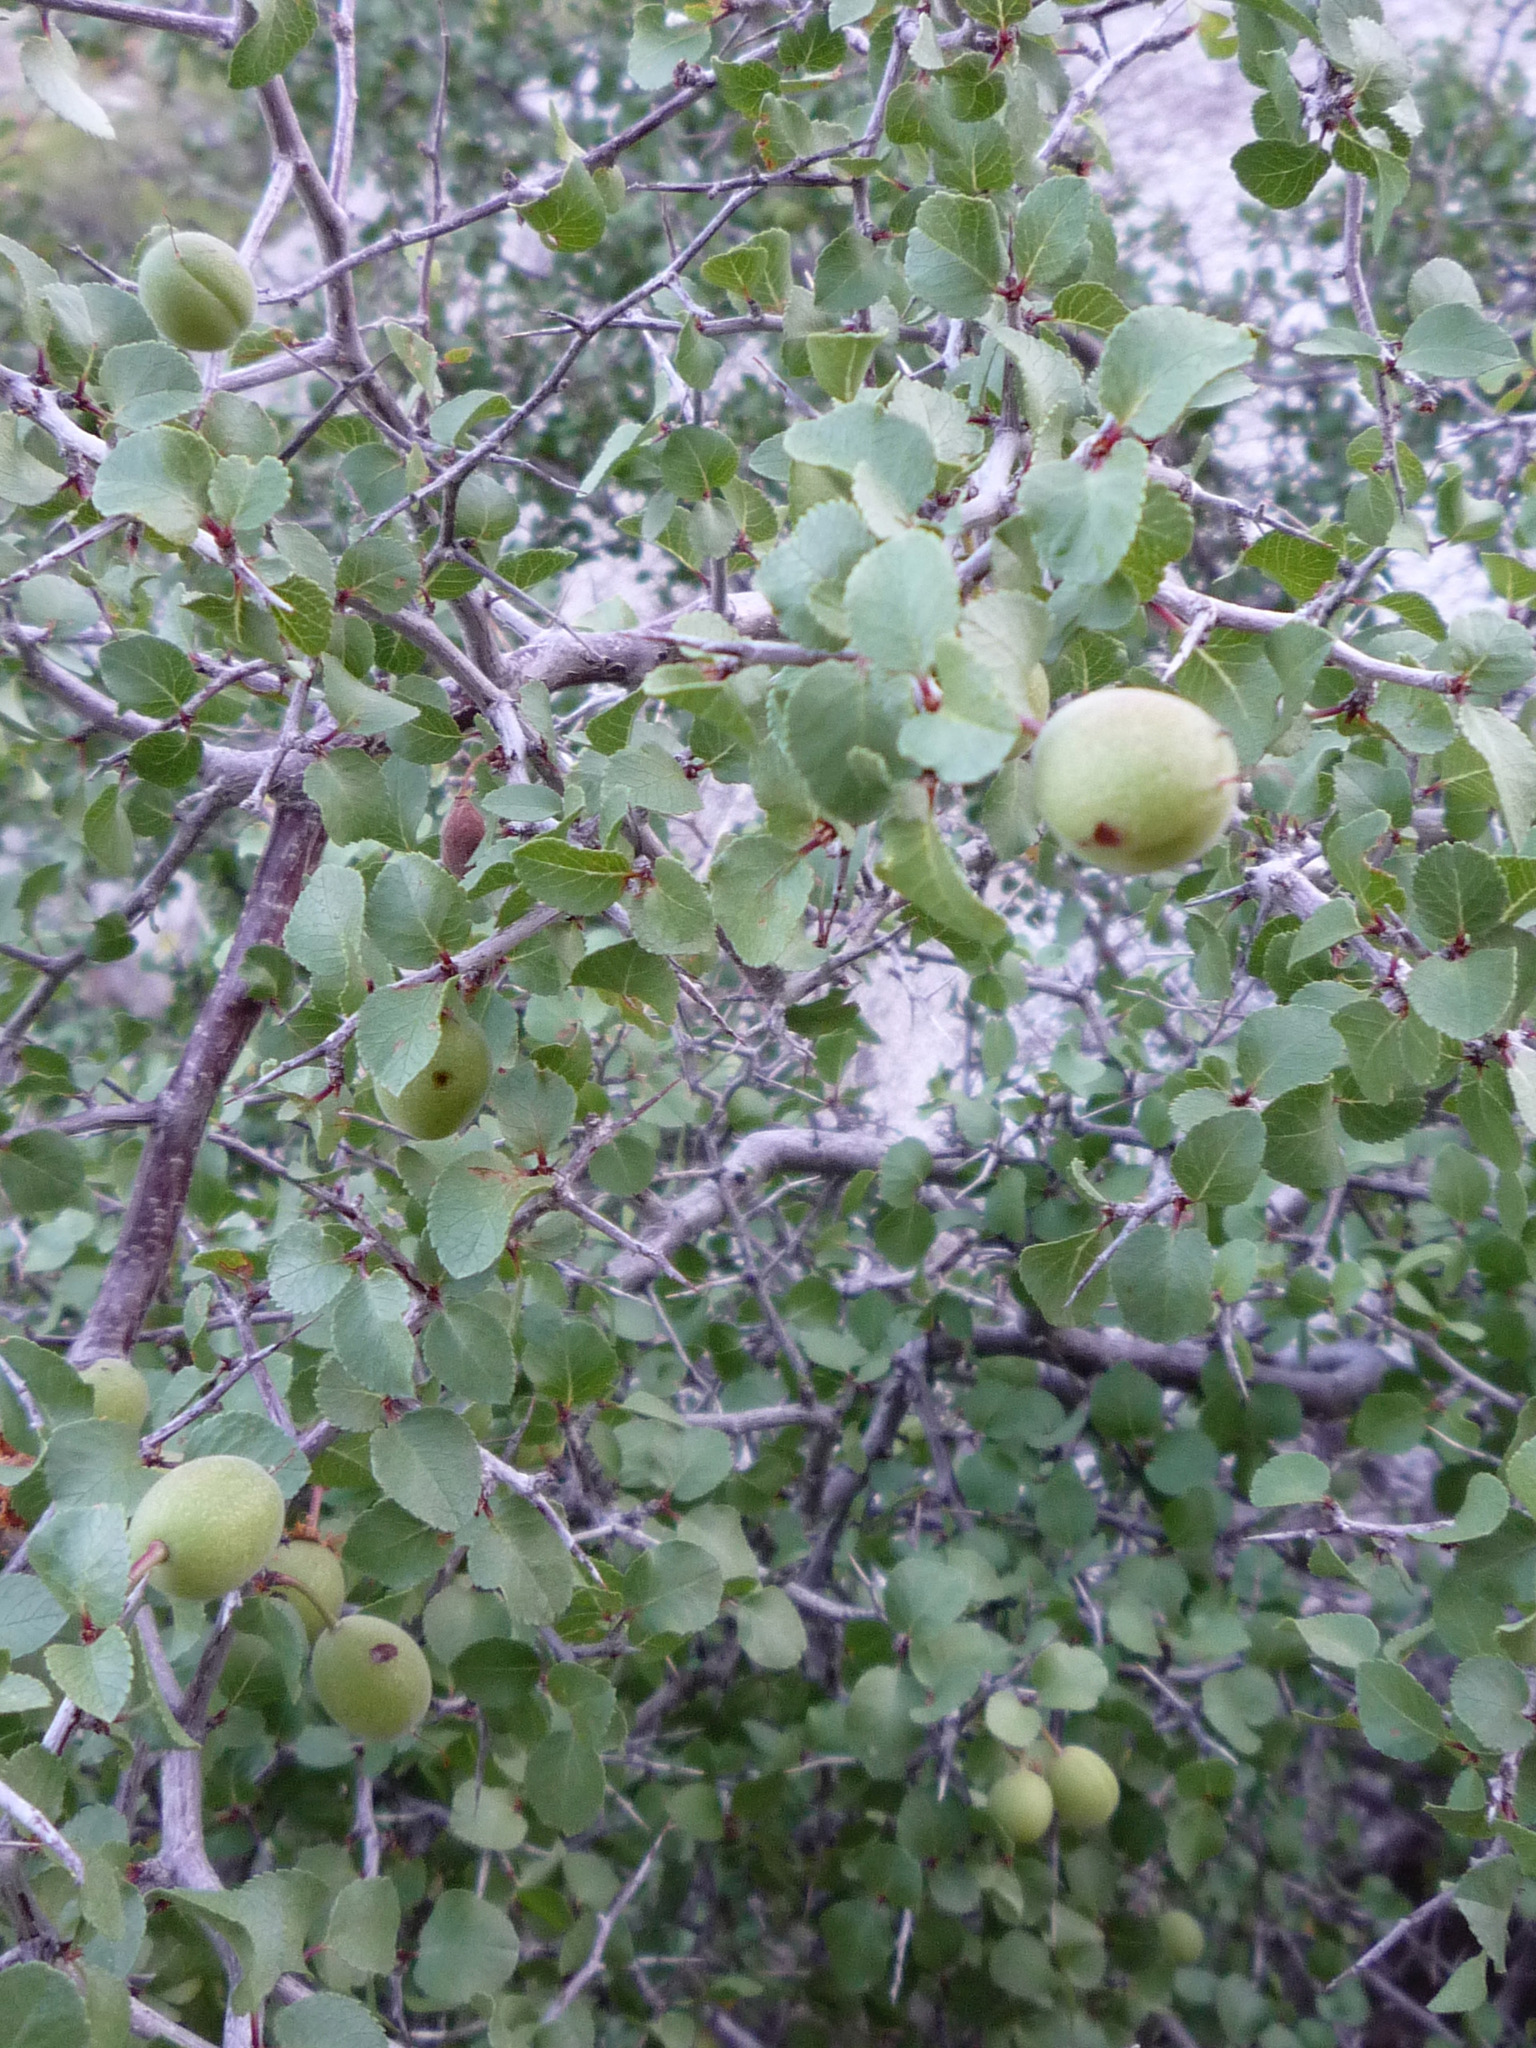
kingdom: Plantae
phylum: Tracheophyta
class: Magnoliopsida
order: Rosales
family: Rosaceae
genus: Prunus
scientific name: Prunus fremontii
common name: Desert apricot
